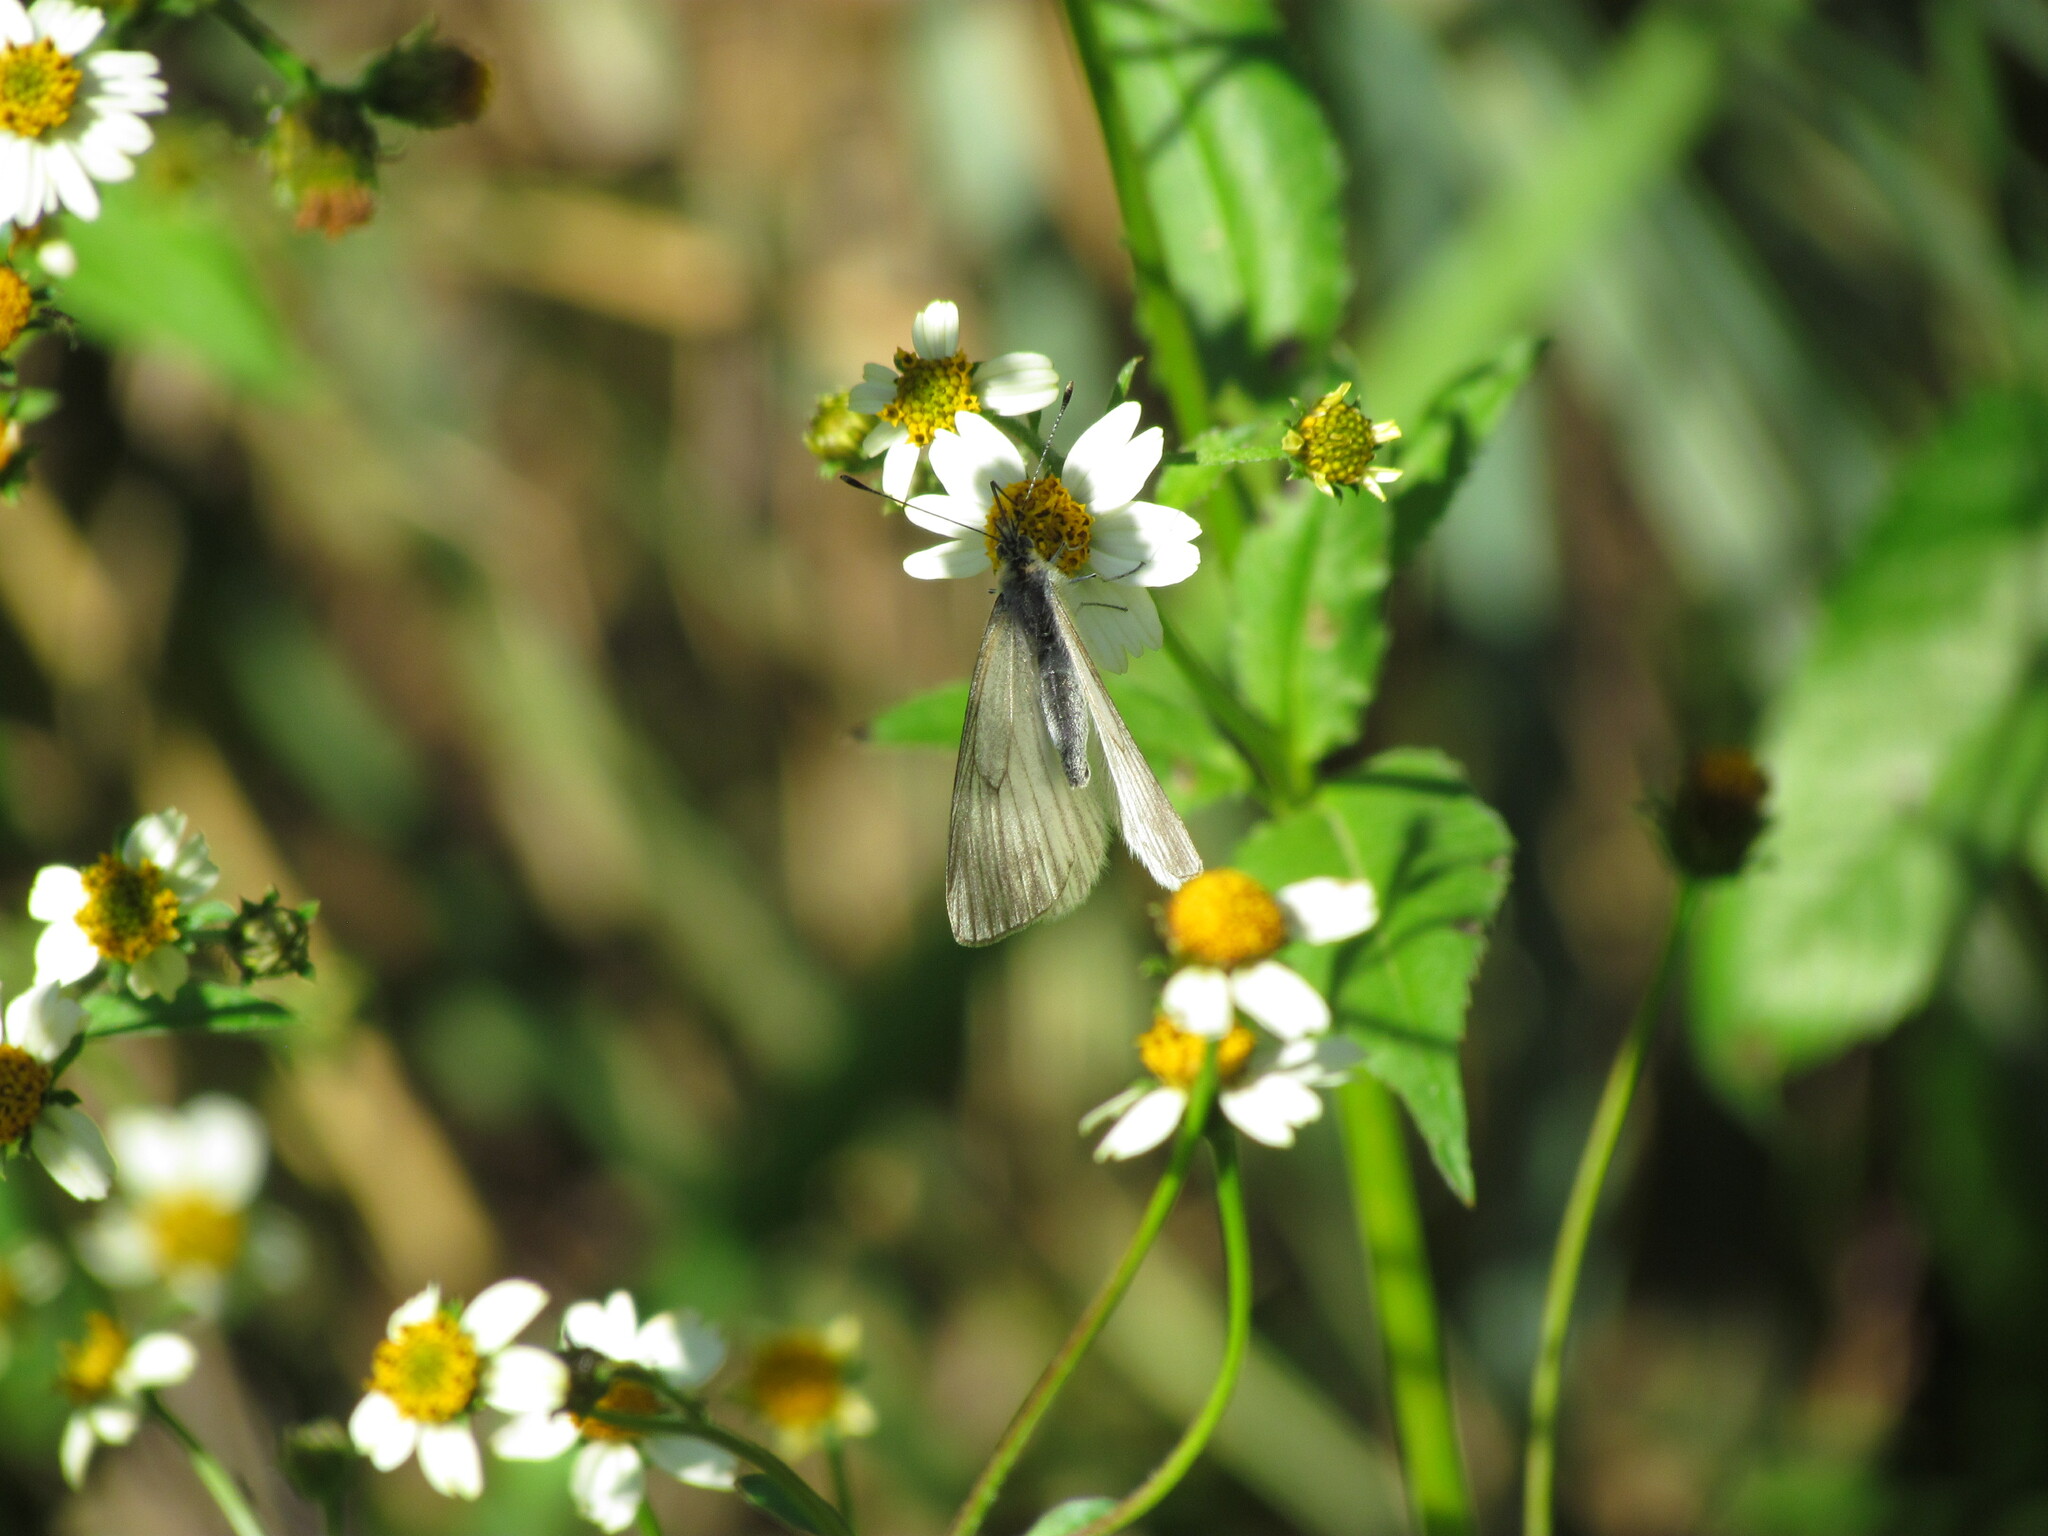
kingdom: Animalia
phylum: Arthropoda
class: Insecta
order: Lepidoptera
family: Pieridae
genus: Theochila
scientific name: Theochila maenacte
